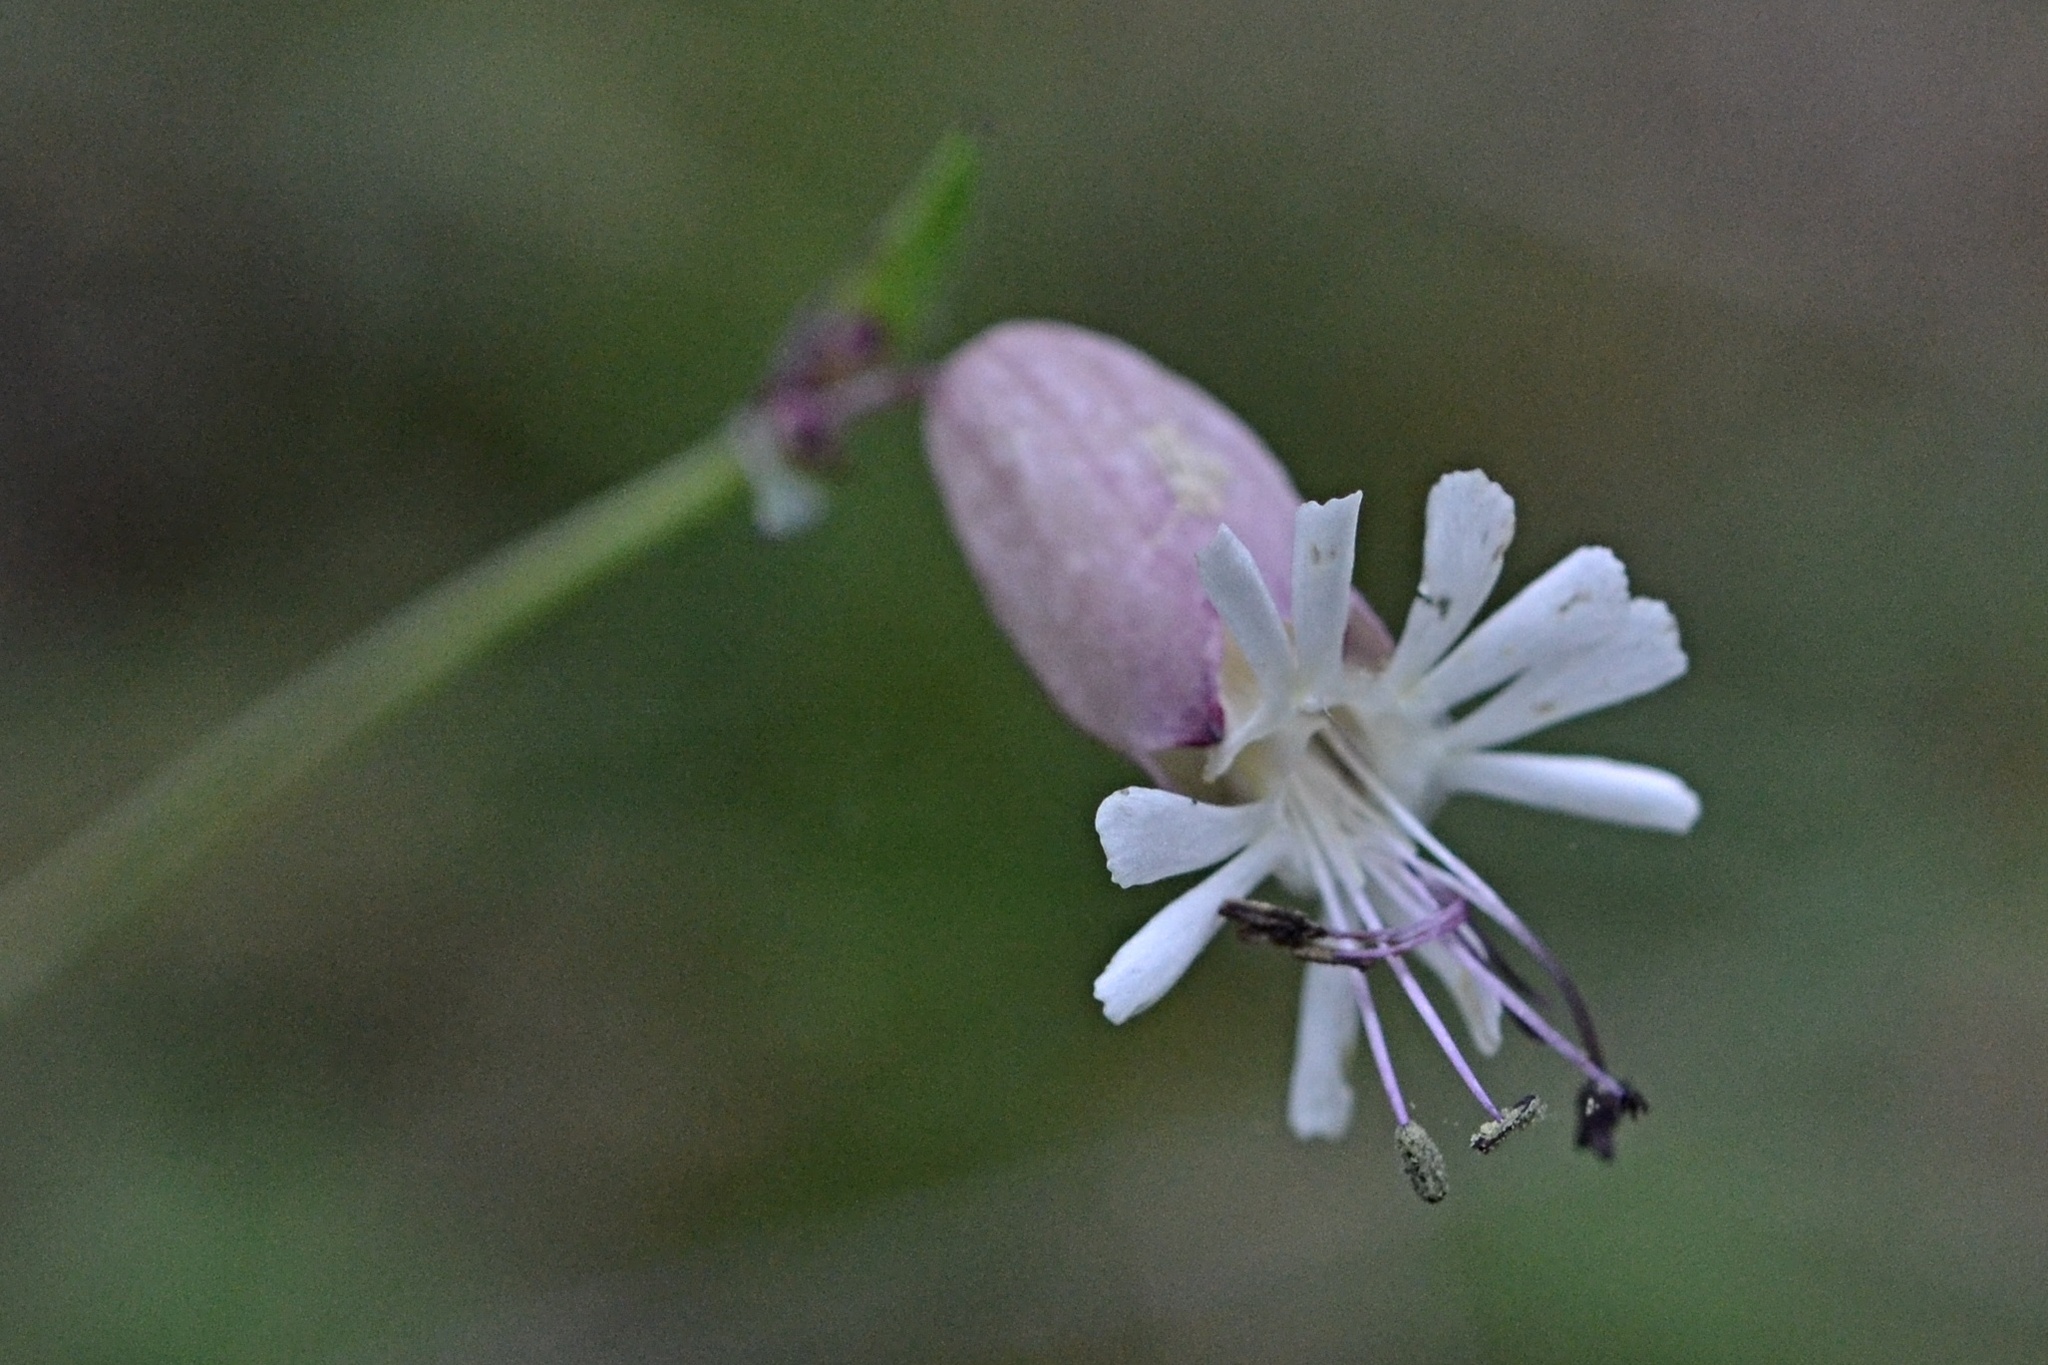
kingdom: Plantae
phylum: Tracheophyta
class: Magnoliopsida
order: Caryophyllales
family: Caryophyllaceae
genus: Silene
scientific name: Silene vulgaris
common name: Bladder campion
